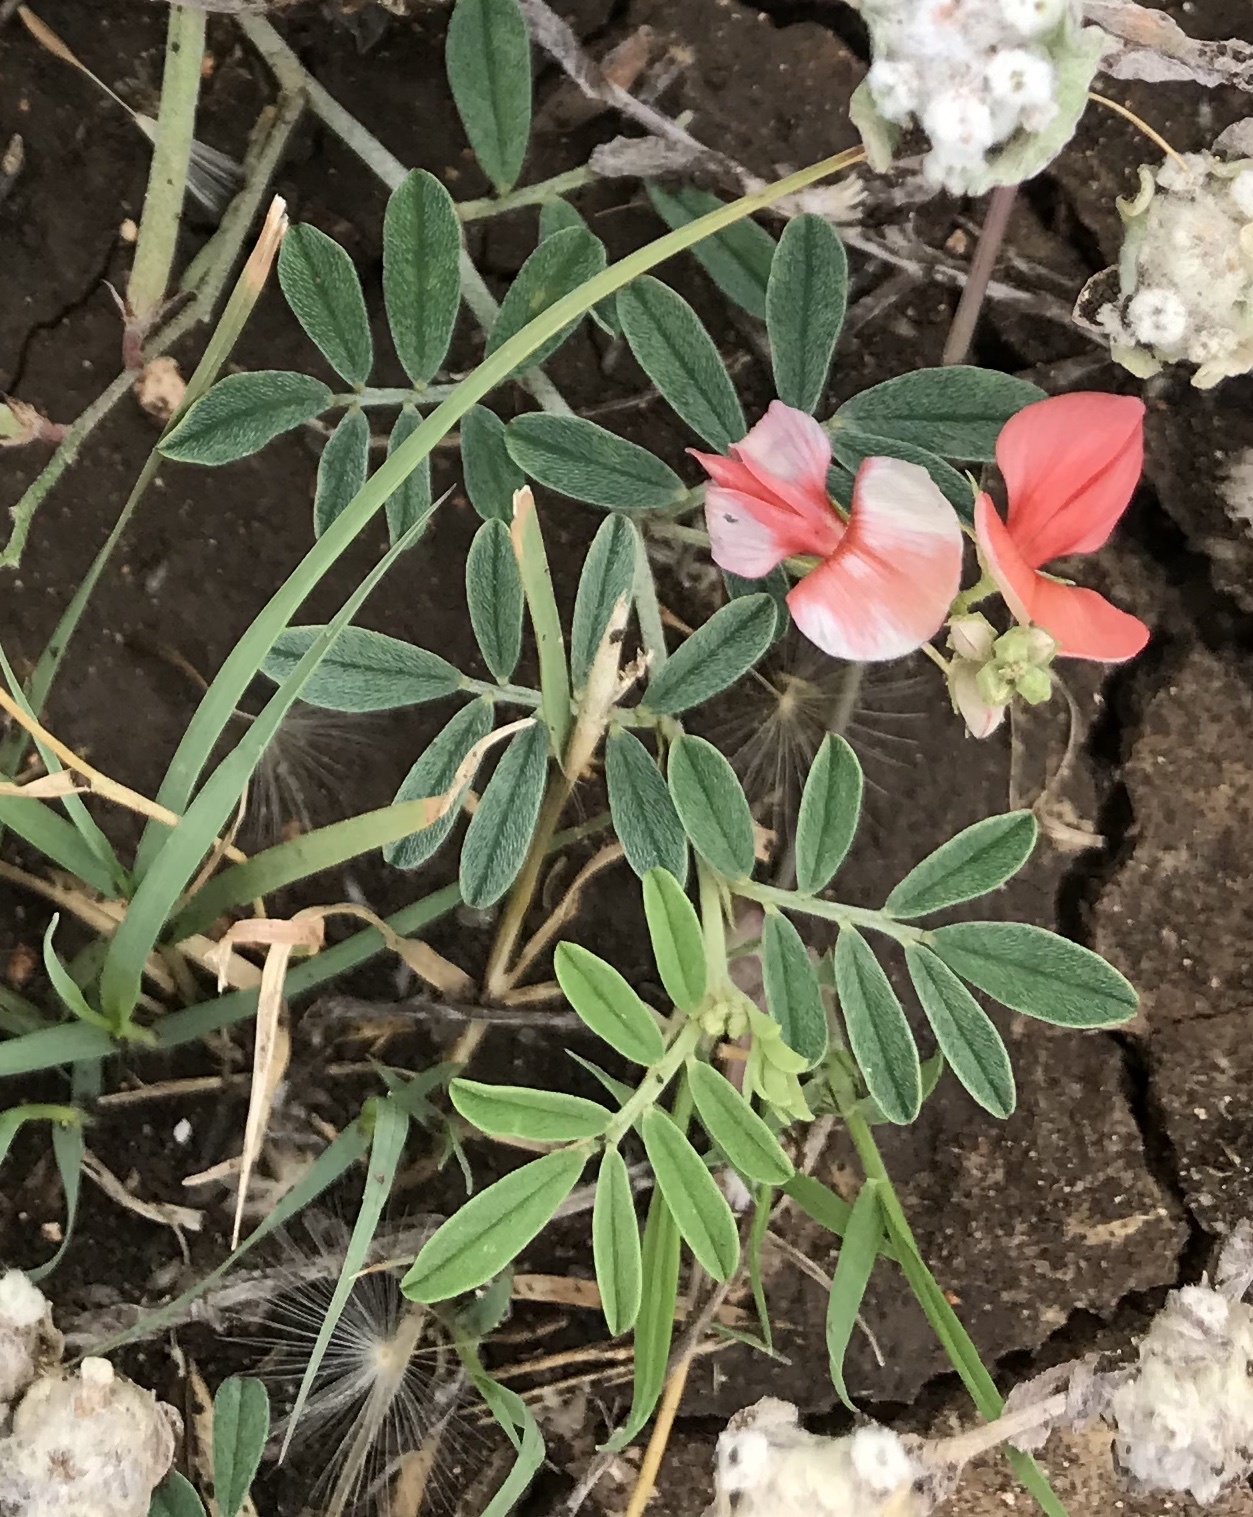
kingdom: Plantae
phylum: Tracheophyta
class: Magnoliopsida
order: Fabales
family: Fabaceae
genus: Indigofera
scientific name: Indigofera miniata
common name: Coast indigo
